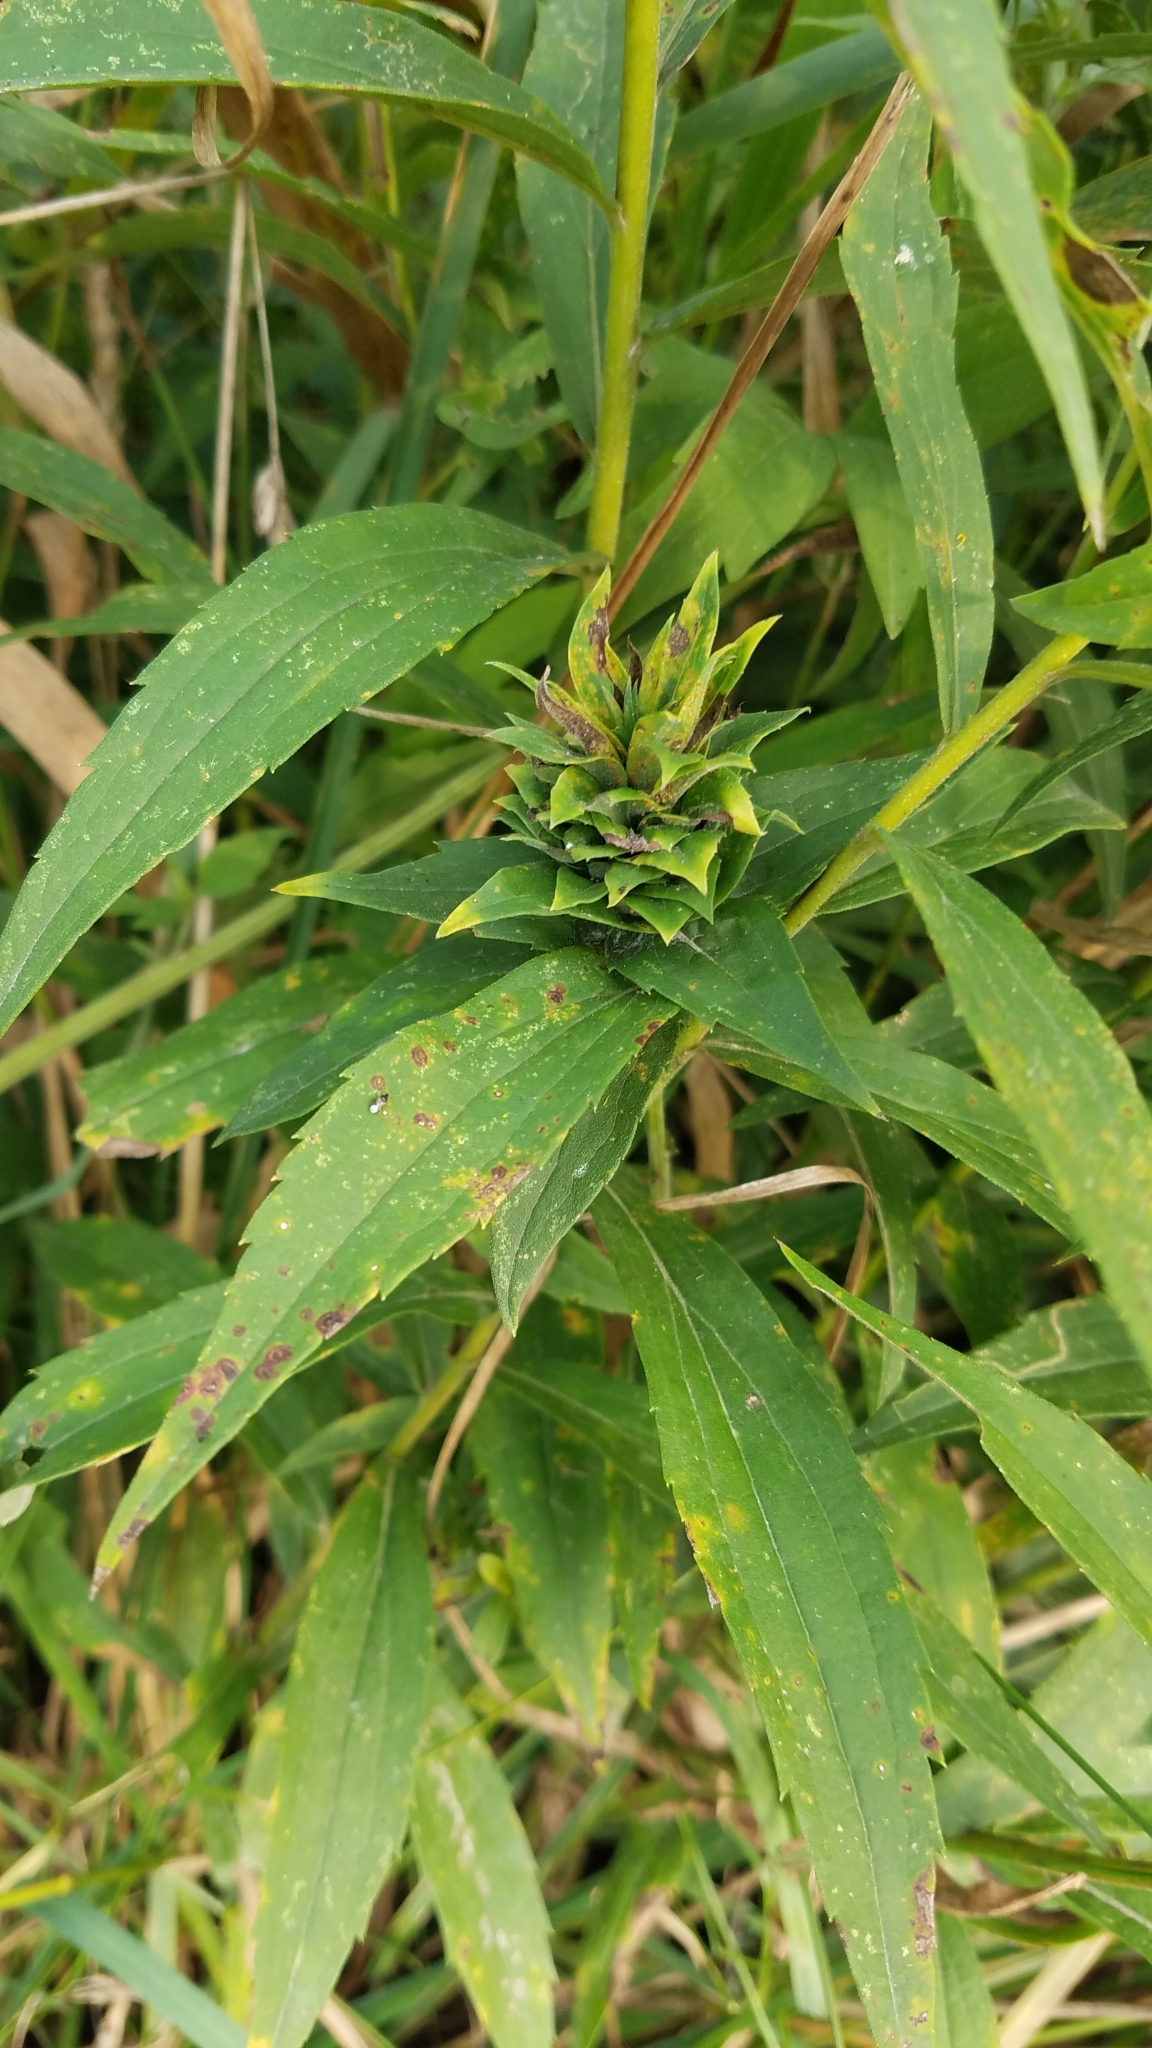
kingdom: Animalia
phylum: Arthropoda
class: Insecta
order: Diptera
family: Cecidomyiidae
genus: Rhopalomyia
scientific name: Rhopalomyia solidaginis
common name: Goldenrod bunch gall midge
